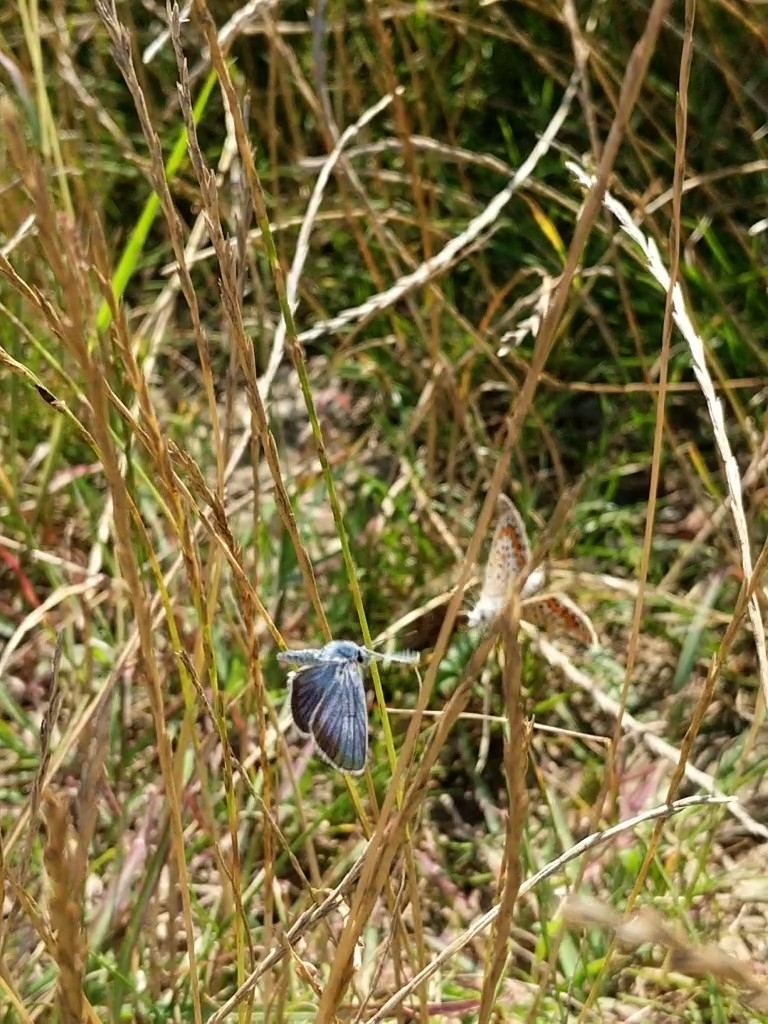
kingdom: Animalia
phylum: Arthropoda
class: Insecta
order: Lepidoptera
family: Lycaenidae
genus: Plebejus
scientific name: Plebejus argus
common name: Silver-studded blue
